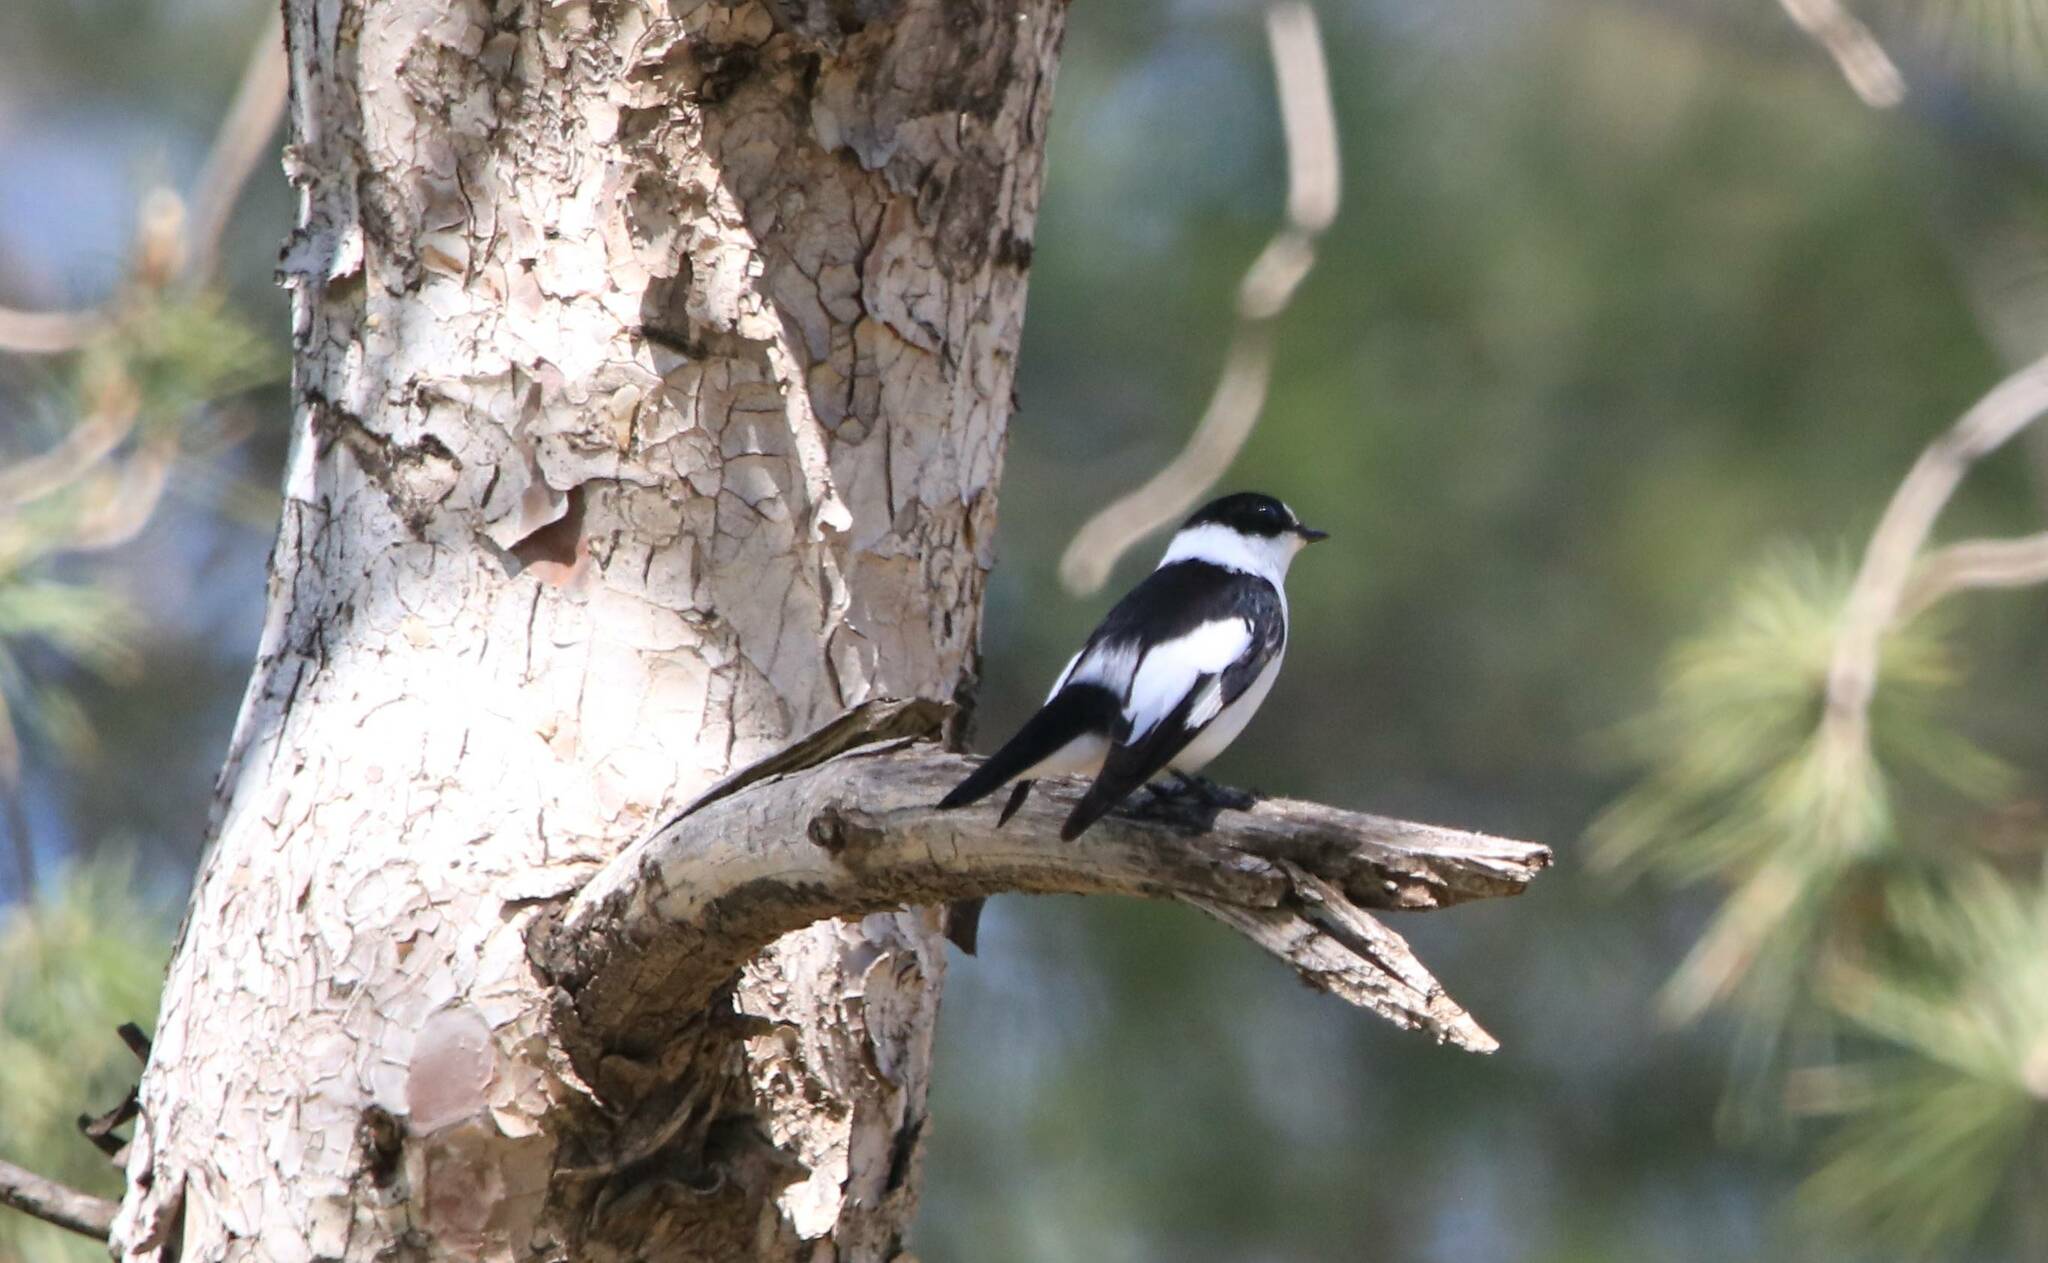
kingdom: Animalia
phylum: Chordata
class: Aves
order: Passeriformes
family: Muscicapidae
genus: Ficedula
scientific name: Ficedula albicollis
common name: Collared flycatcher
